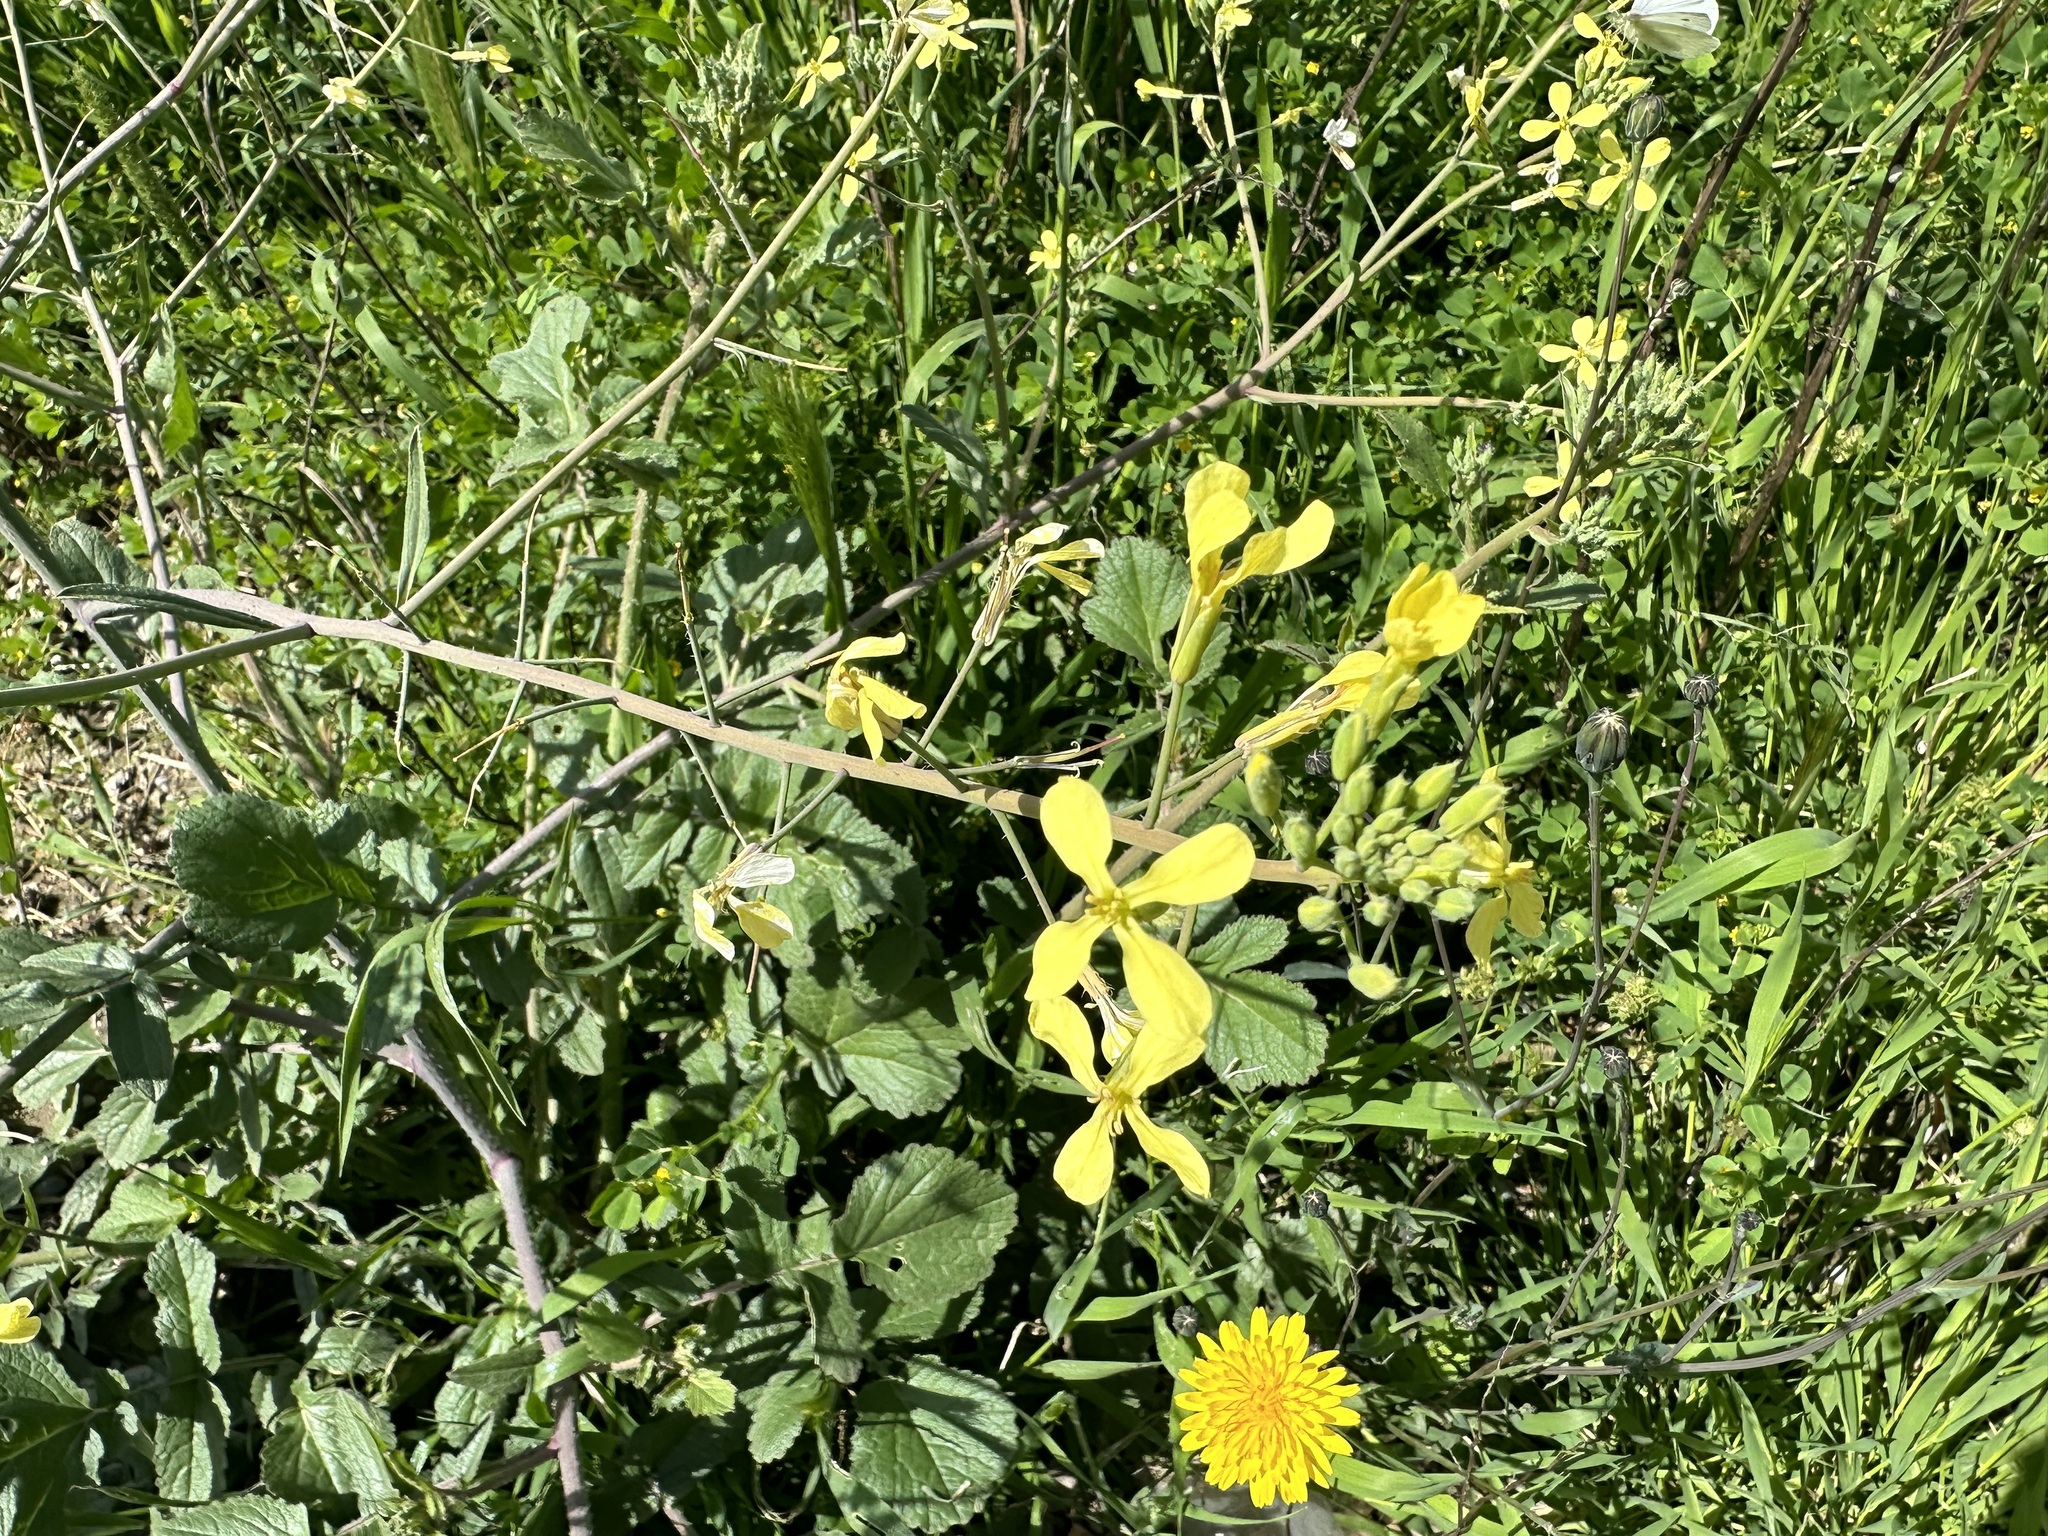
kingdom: Plantae
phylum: Tracheophyta
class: Magnoliopsida
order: Brassicales
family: Brassicaceae
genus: Raphanus
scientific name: Raphanus raphanistrum
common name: Wild radish
